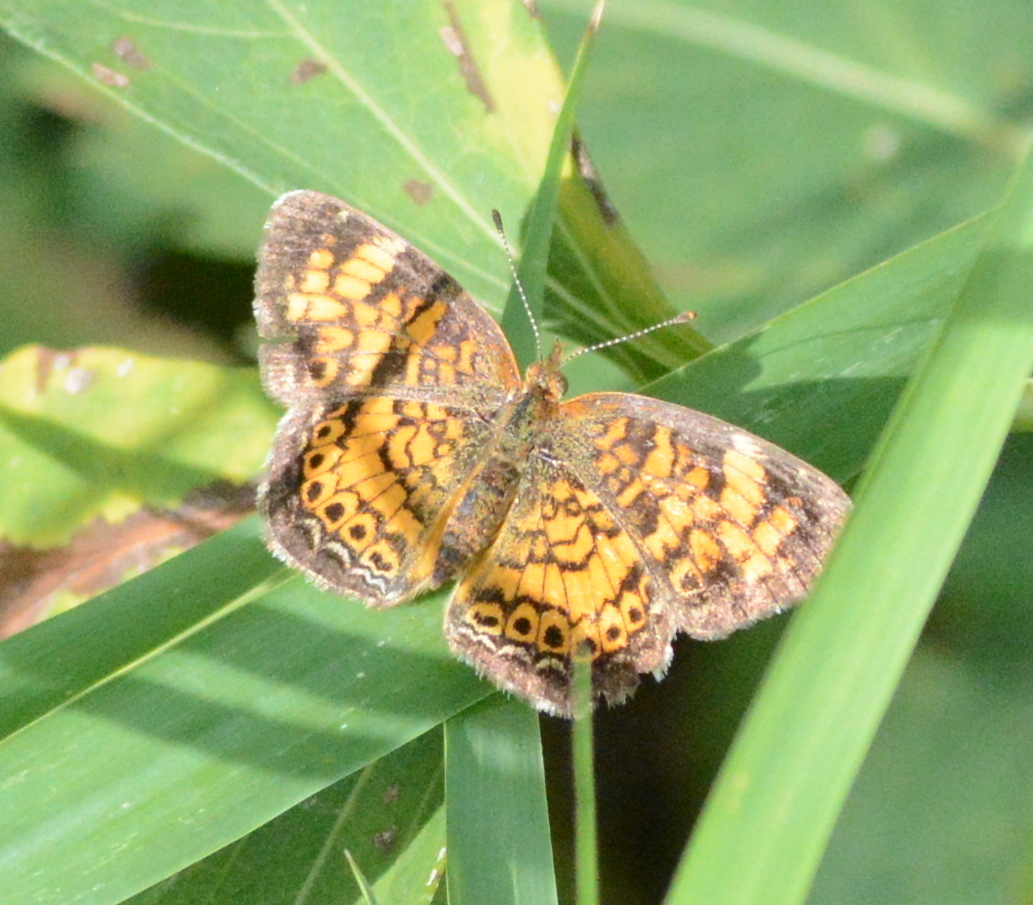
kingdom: Animalia
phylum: Arthropoda
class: Insecta
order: Lepidoptera
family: Nymphalidae
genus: Phyciodes
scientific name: Phyciodes tharos
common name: Pearl crescent
